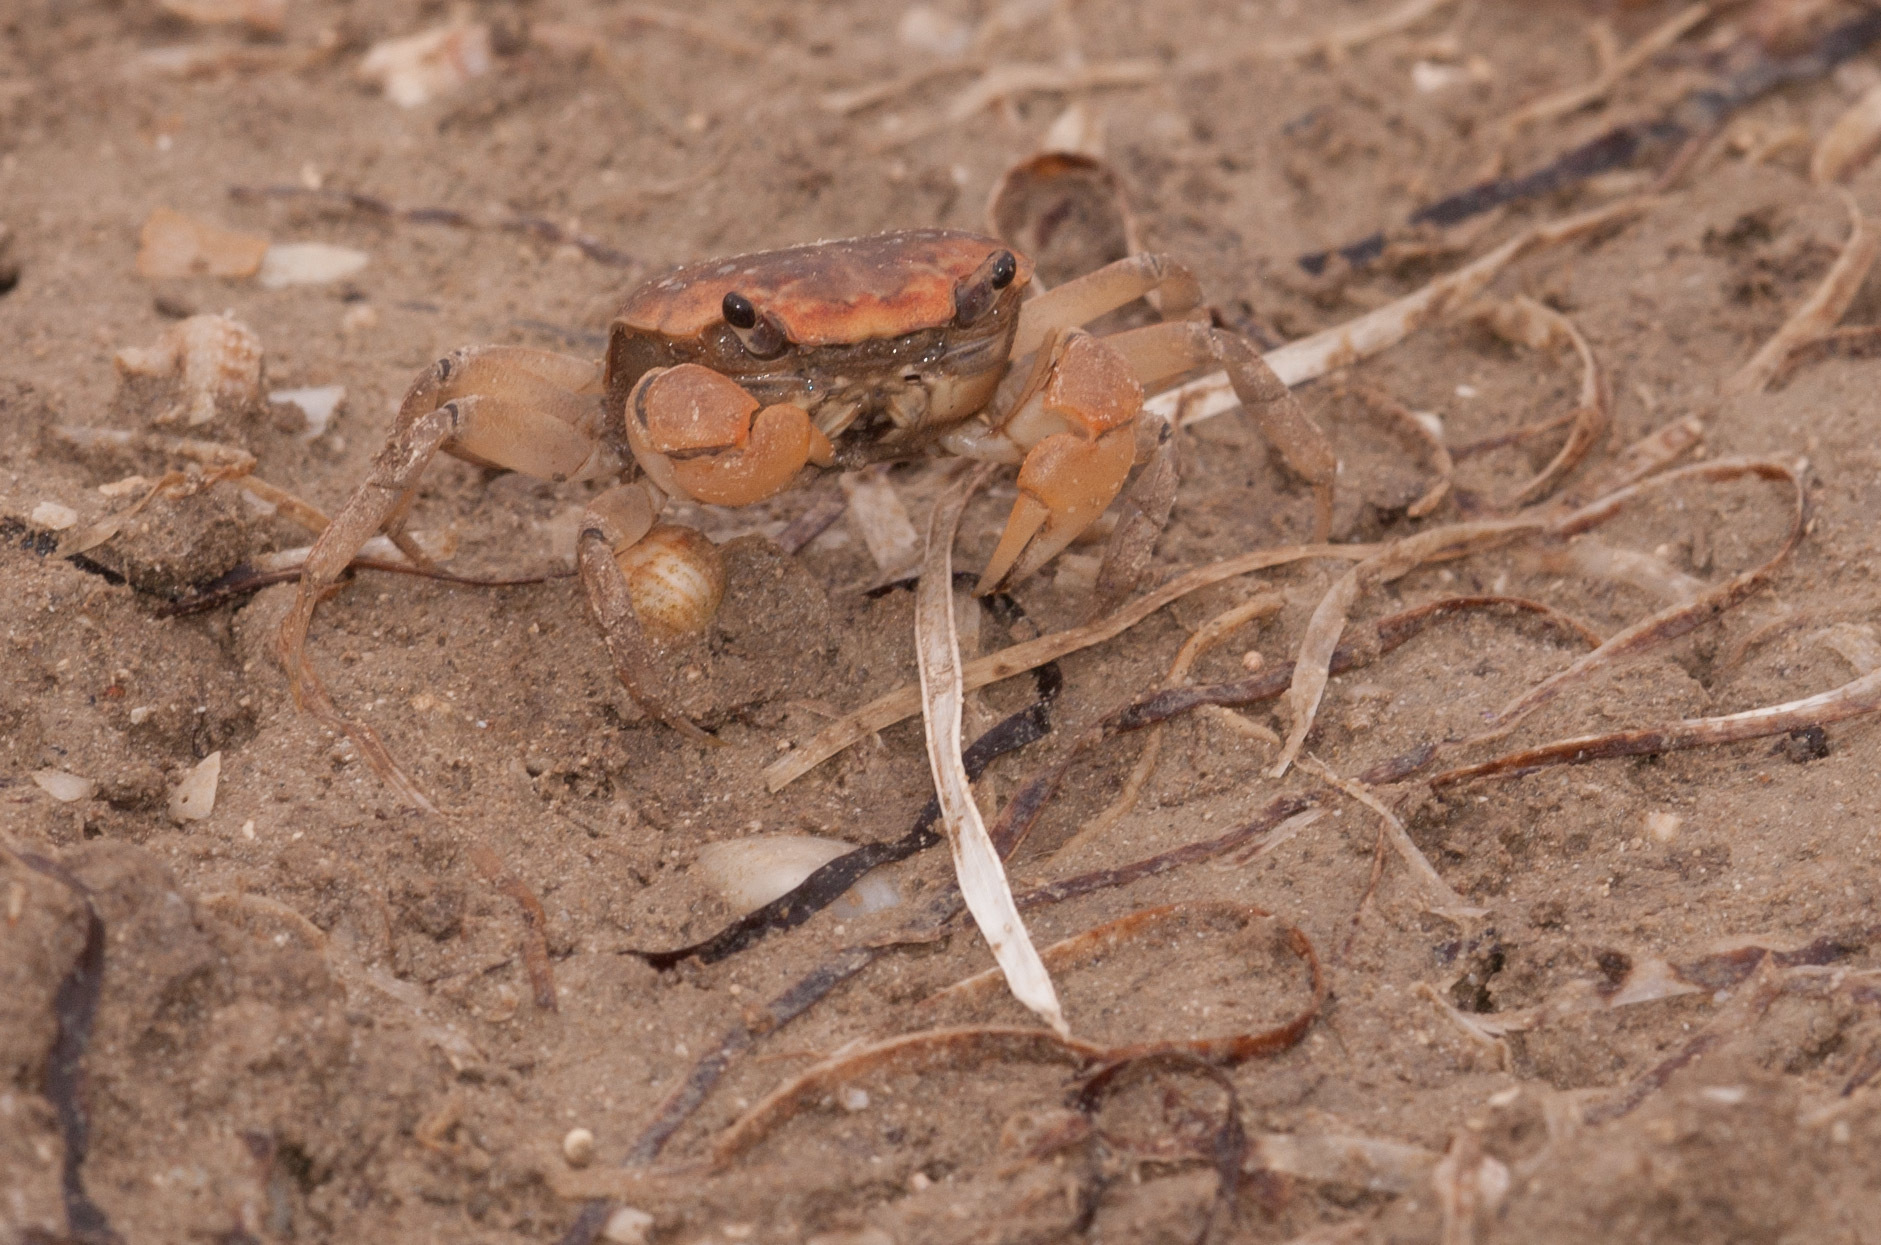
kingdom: Animalia
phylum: Arthropoda
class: Malacostraca
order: Decapoda
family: Varunidae
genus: Helograpsus
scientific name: Helograpsus haswellianus
